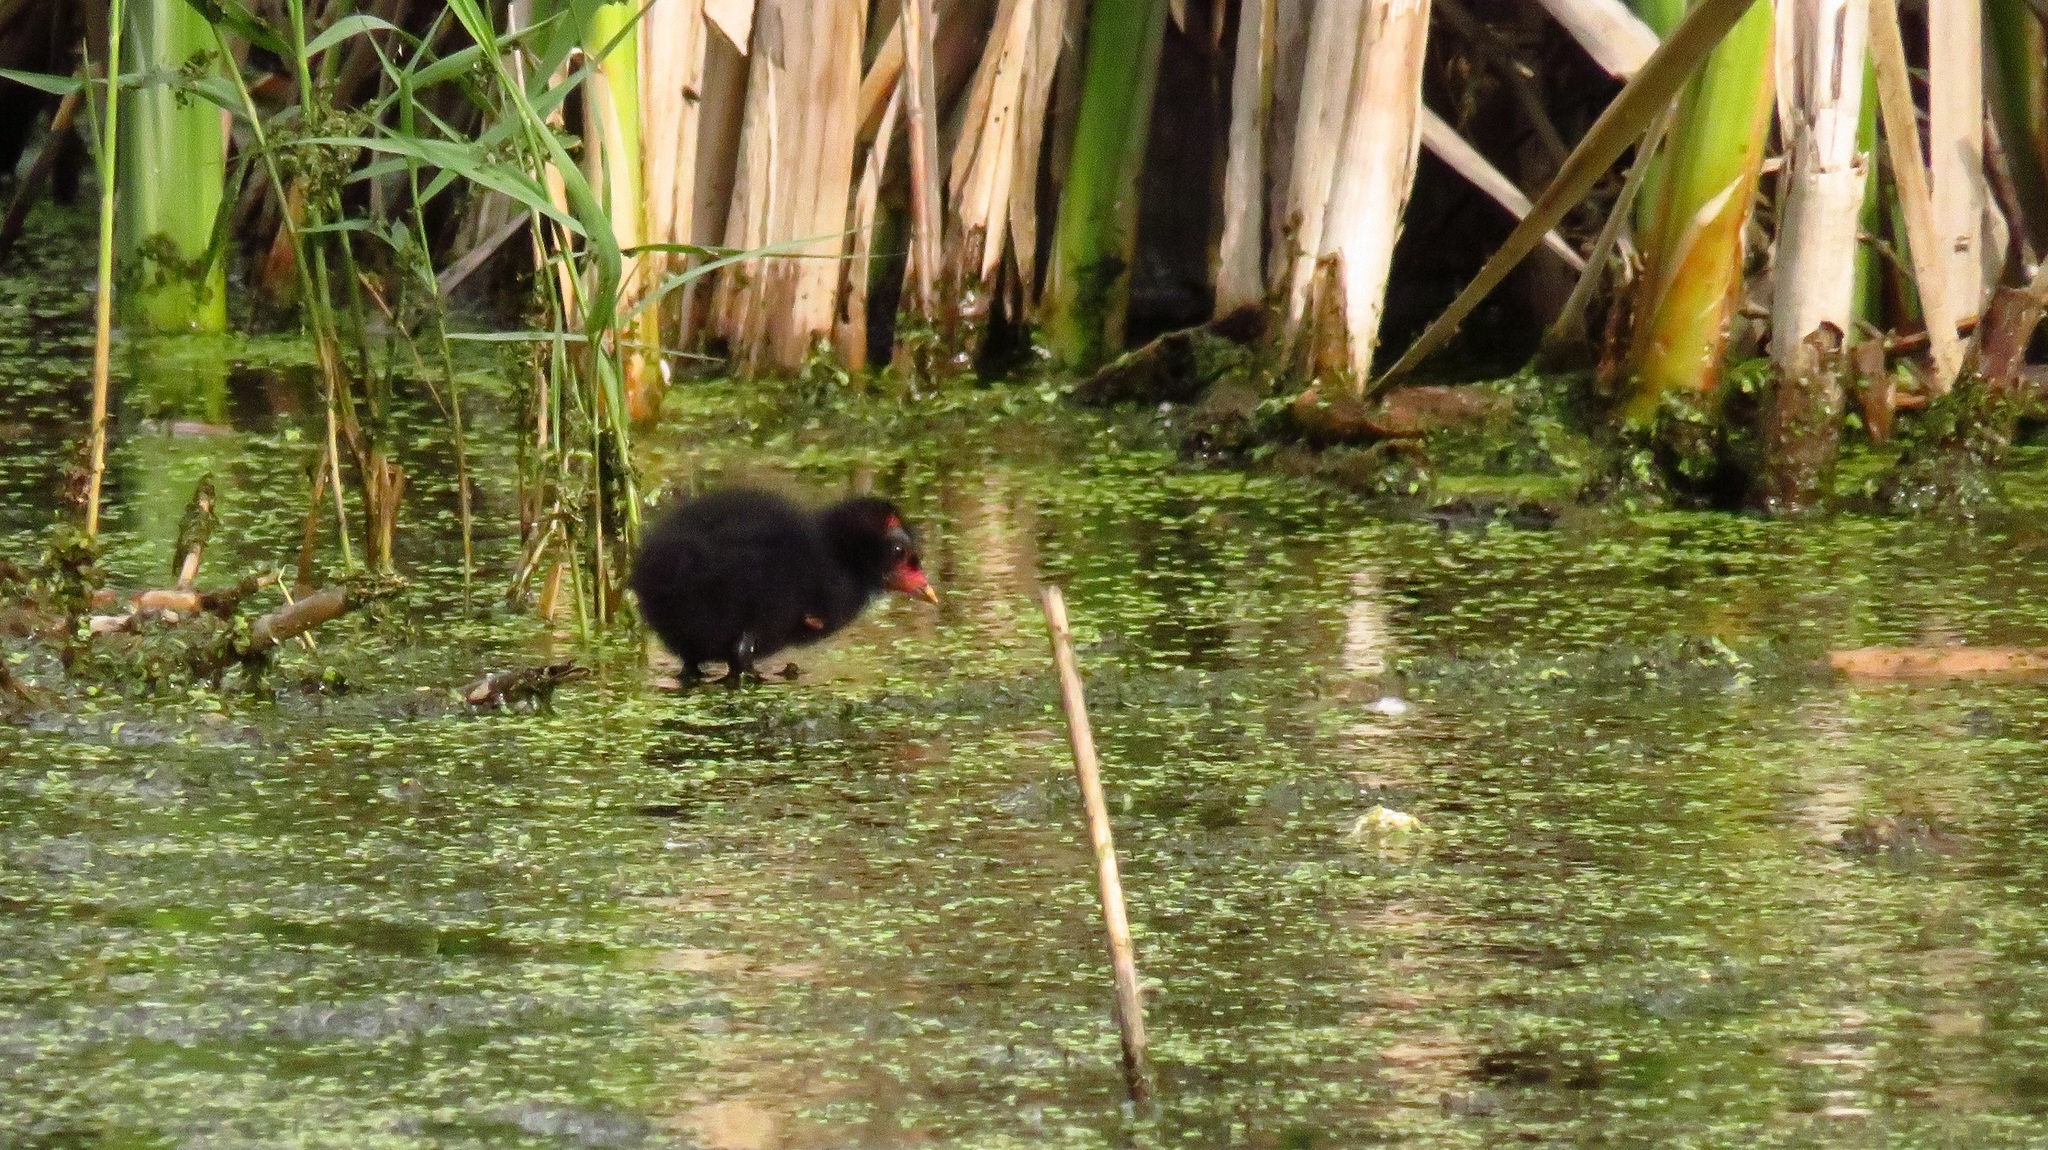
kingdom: Animalia
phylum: Chordata
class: Aves
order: Gruiformes
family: Rallidae
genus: Gallinula
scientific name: Gallinula chloropus
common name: Common moorhen
